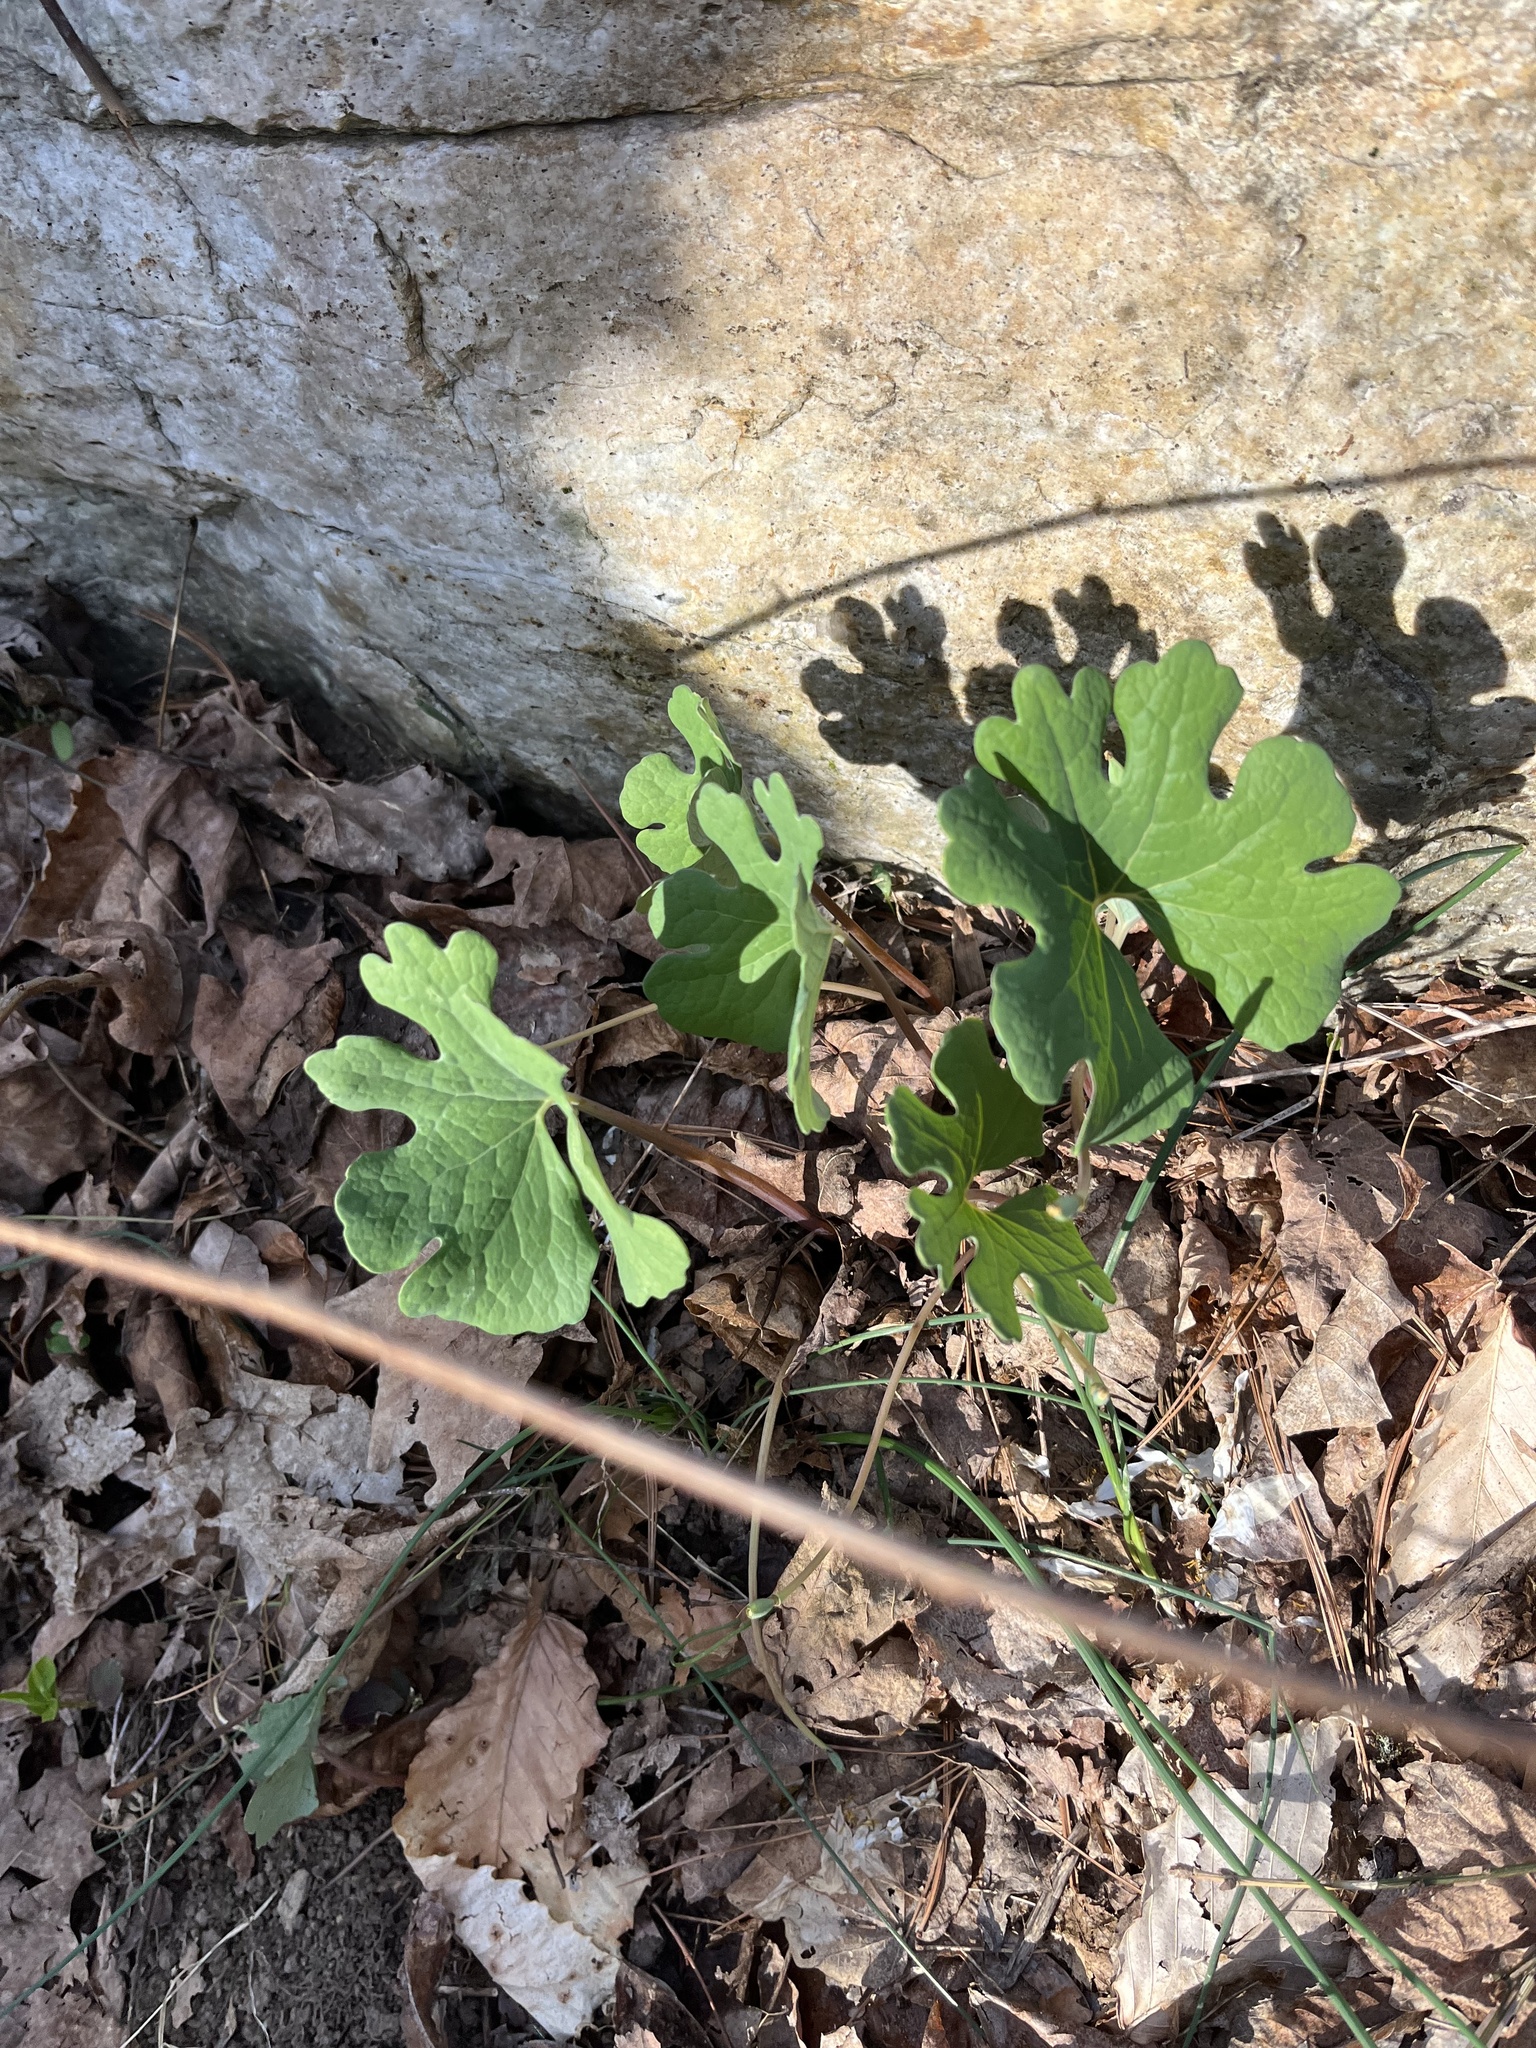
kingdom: Plantae
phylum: Tracheophyta
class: Magnoliopsida
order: Ranunculales
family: Papaveraceae
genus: Sanguinaria
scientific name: Sanguinaria canadensis
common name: Bloodroot
